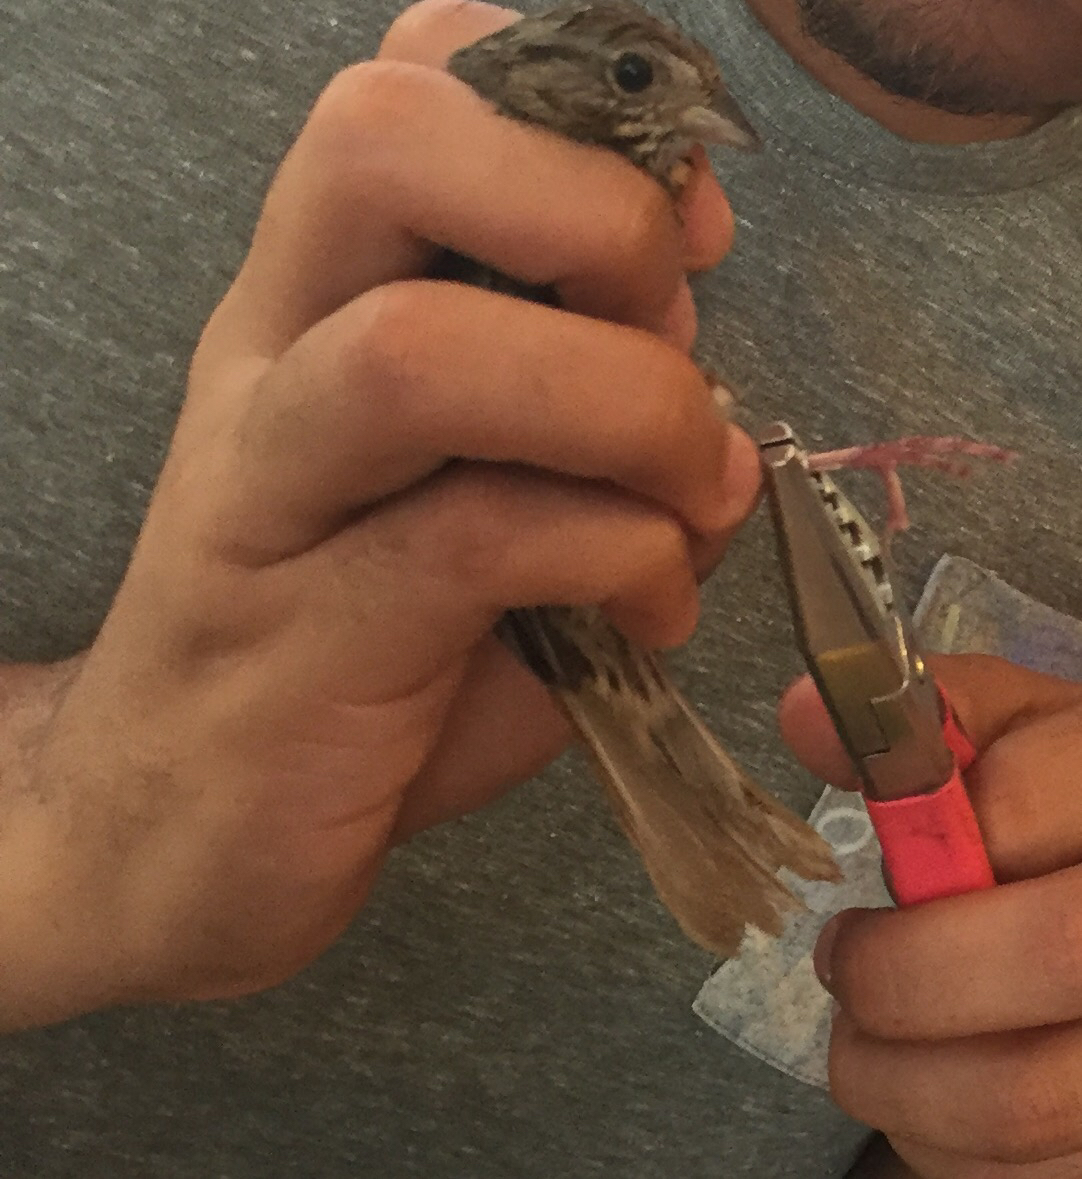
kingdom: Animalia
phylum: Chordata
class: Aves
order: Passeriformes
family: Passerellidae
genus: Melospiza
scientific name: Melospiza lincolnii
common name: Lincoln's sparrow
